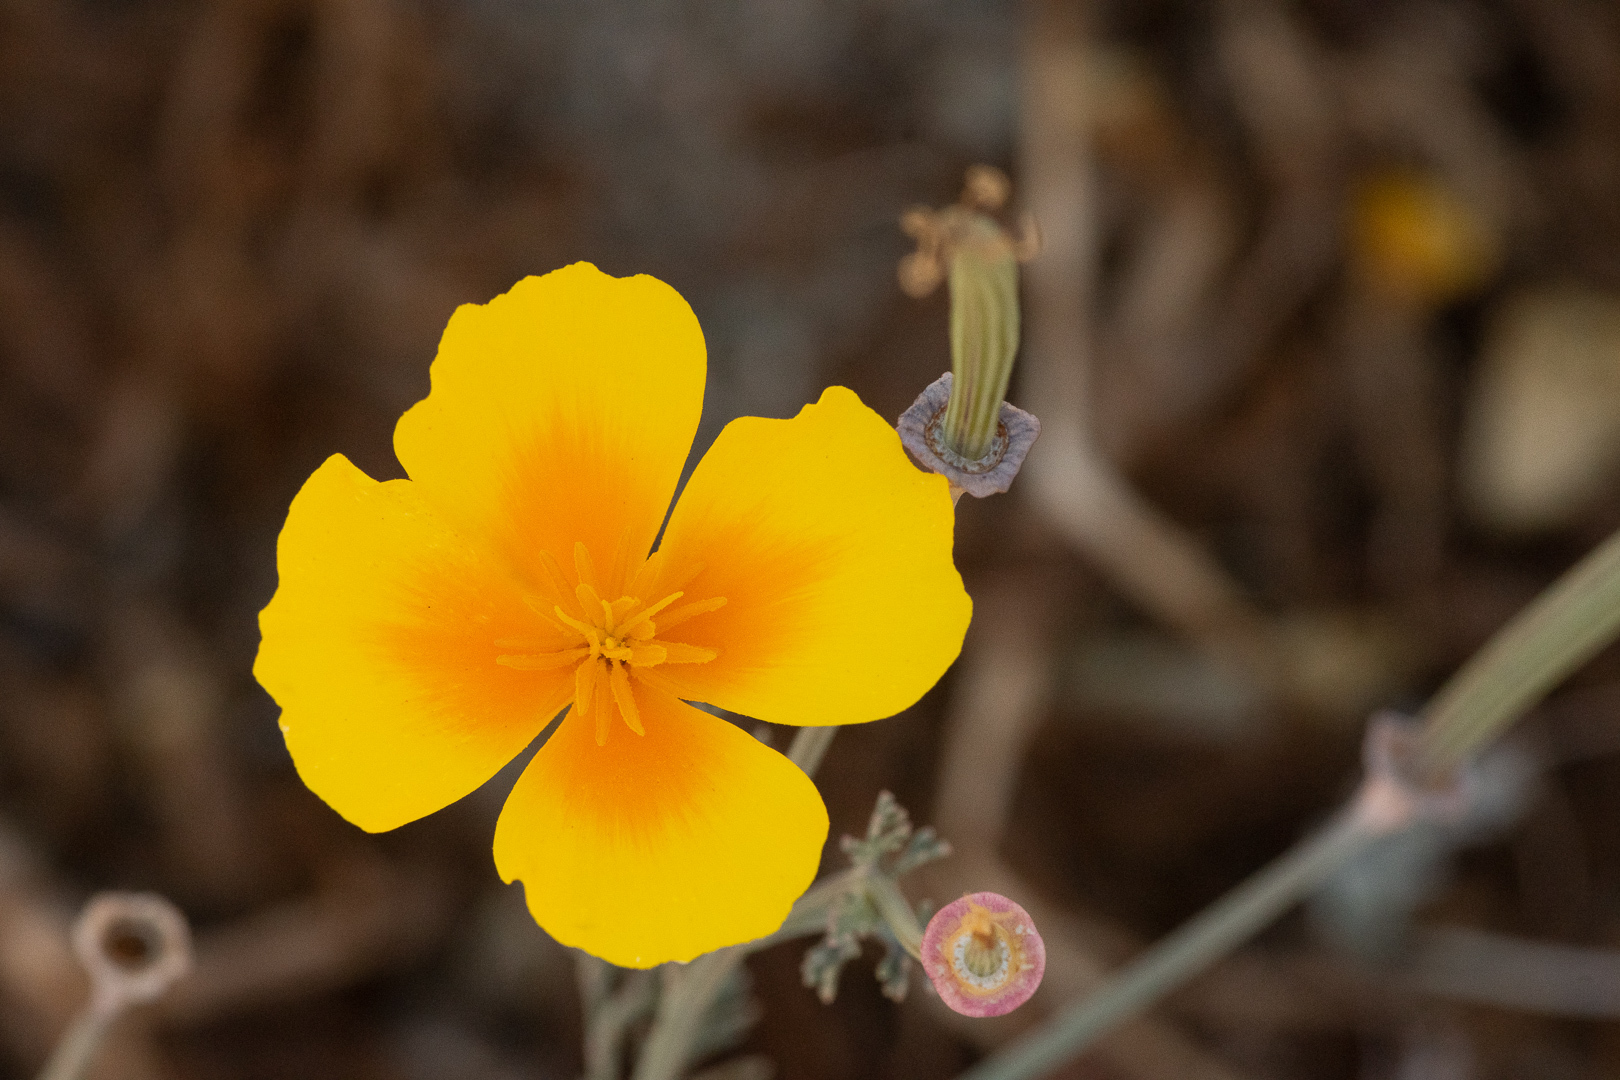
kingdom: Plantae
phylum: Tracheophyta
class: Magnoliopsida
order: Ranunculales
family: Papaveraceae
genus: Eschscholzia
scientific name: Eschscholzia californica
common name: California poppy
